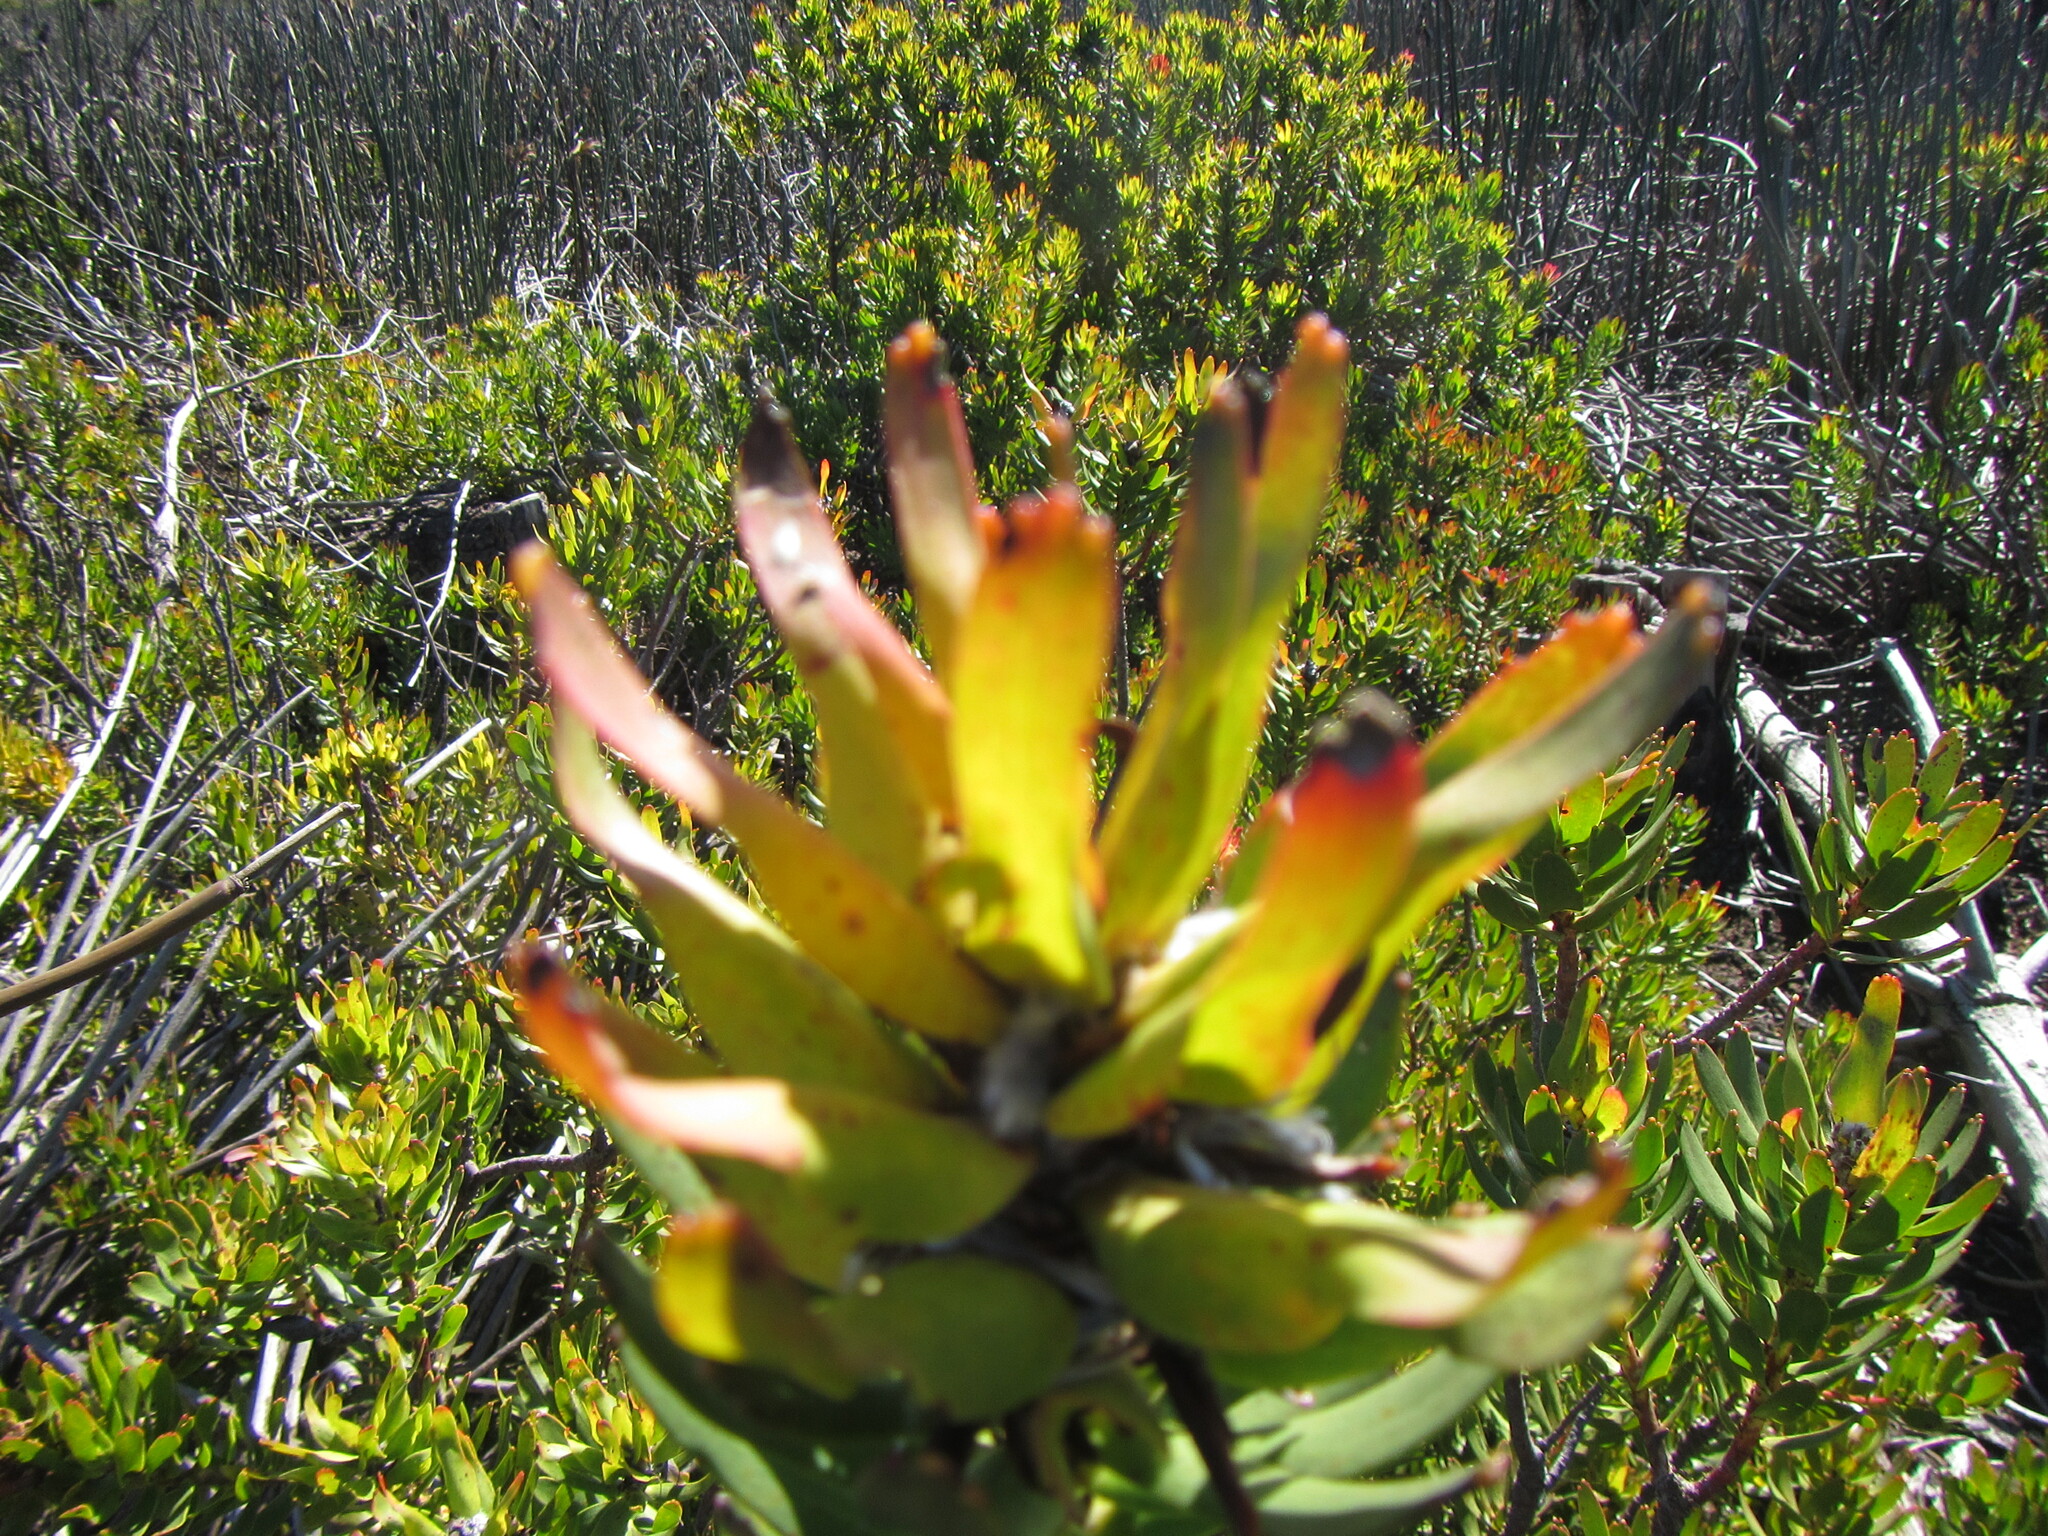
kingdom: Plantae
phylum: Tracheophyta
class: Magnoliopsida
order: Proteales
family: Proteaceae
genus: Mimetes
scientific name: Mimetes cucullatus
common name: Common pagoda
